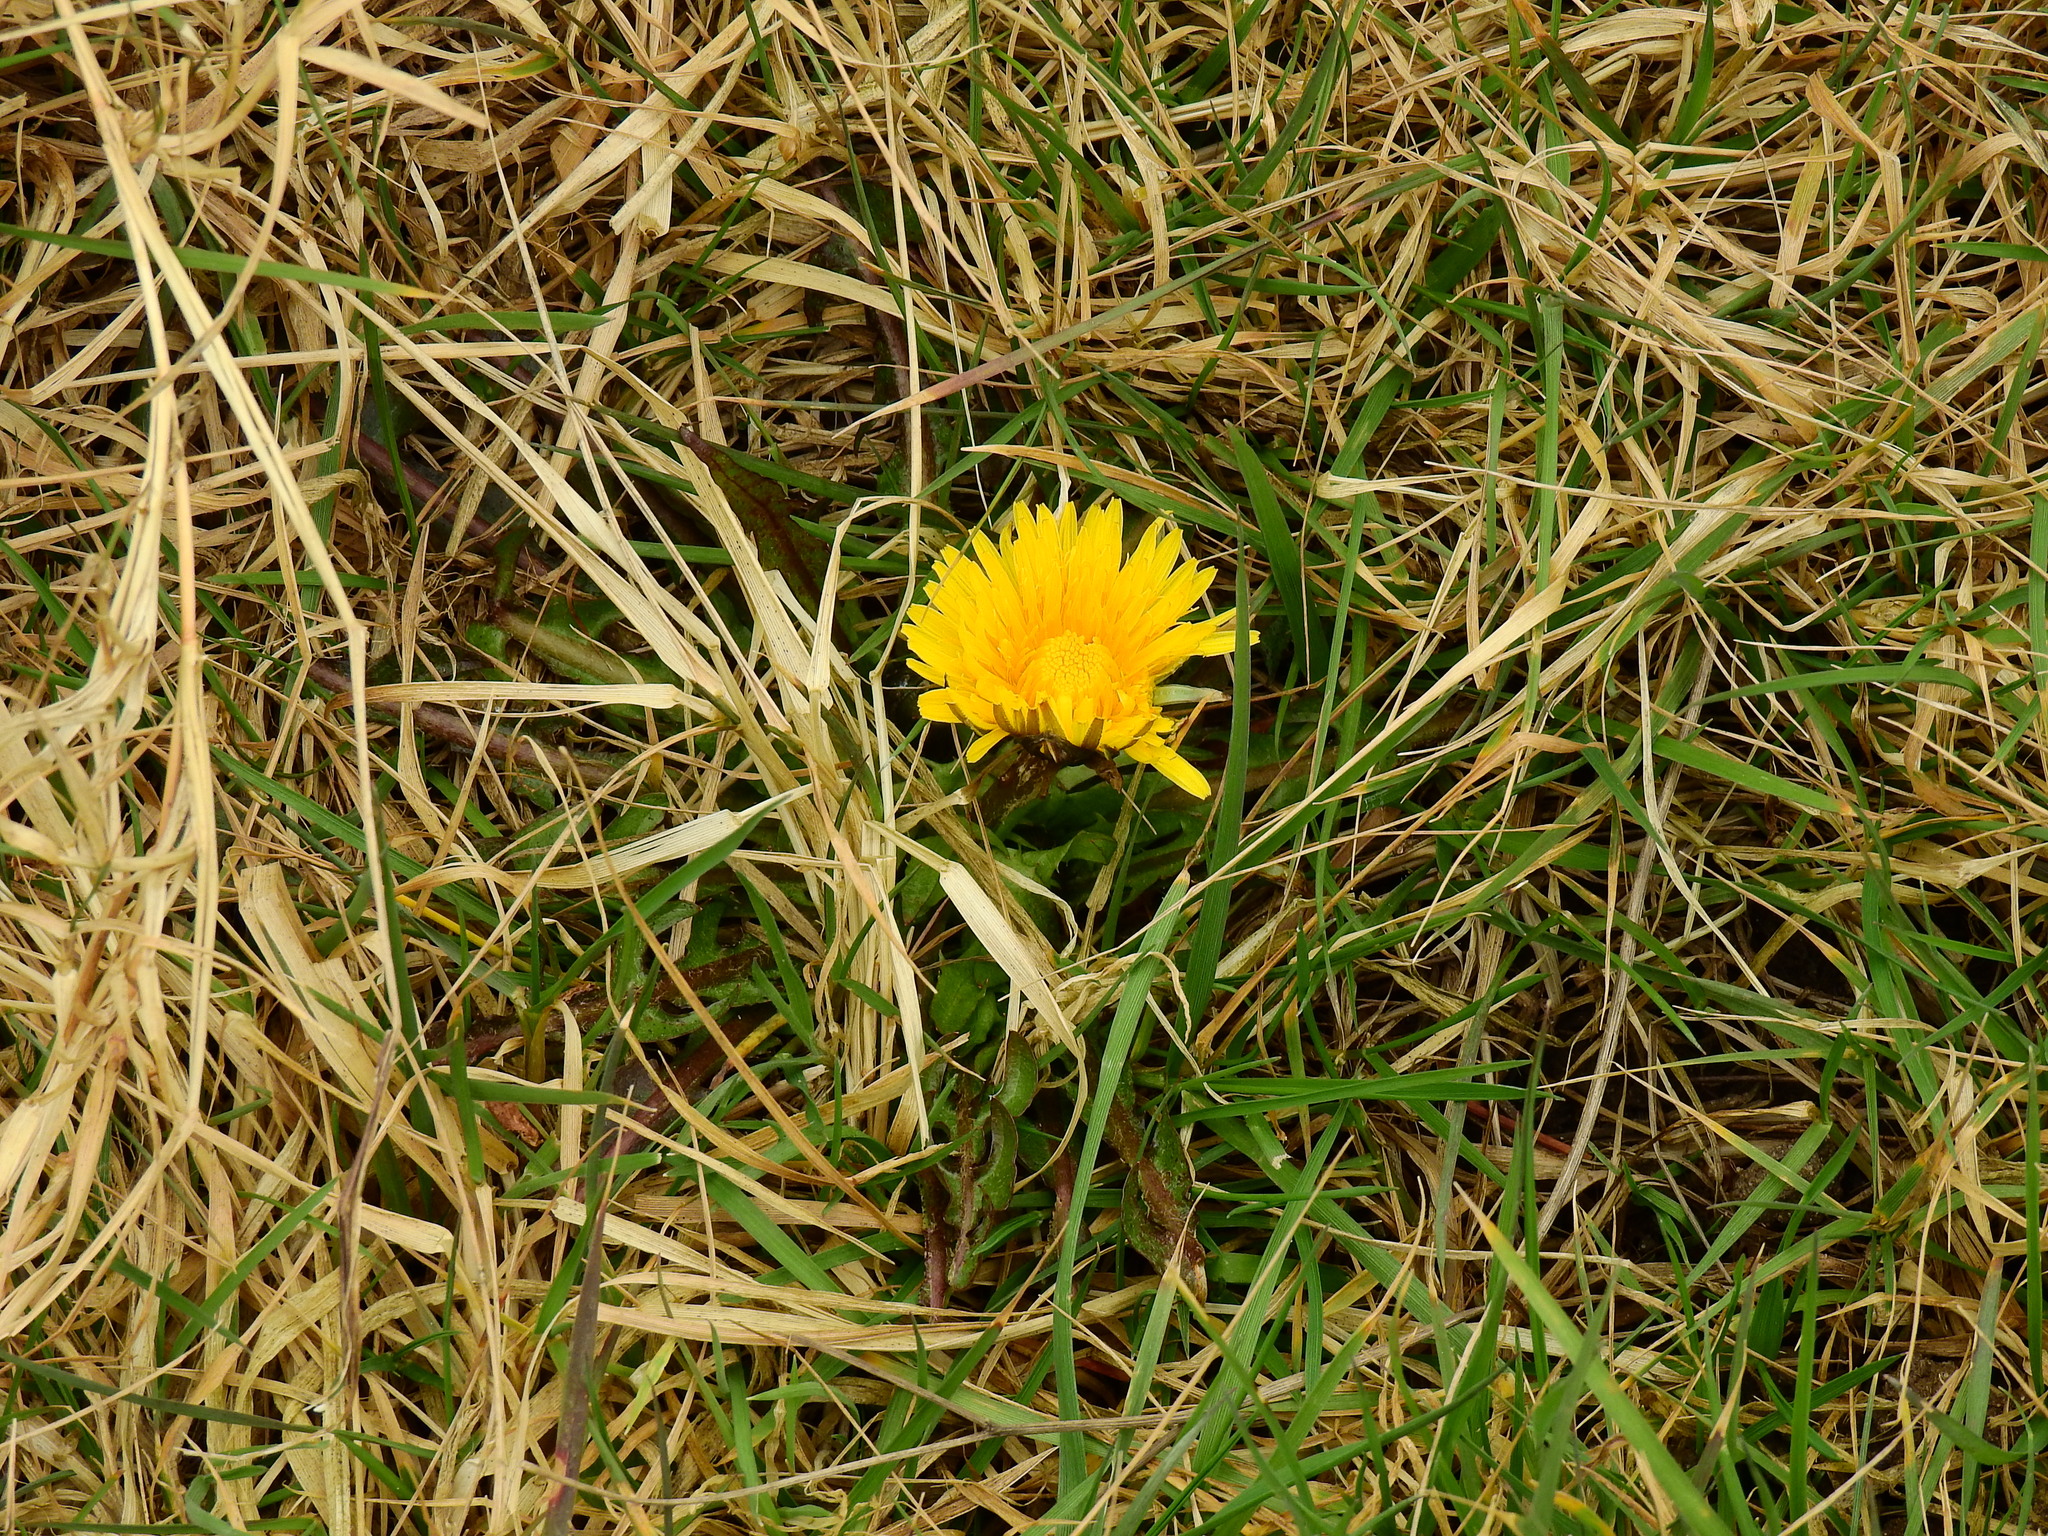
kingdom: Plantae
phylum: Tracheophyta
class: Magnoliopsida
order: Asterales
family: Asteraceae
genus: Taraxacum
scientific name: Taraxacum officinale
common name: Common dandelion
